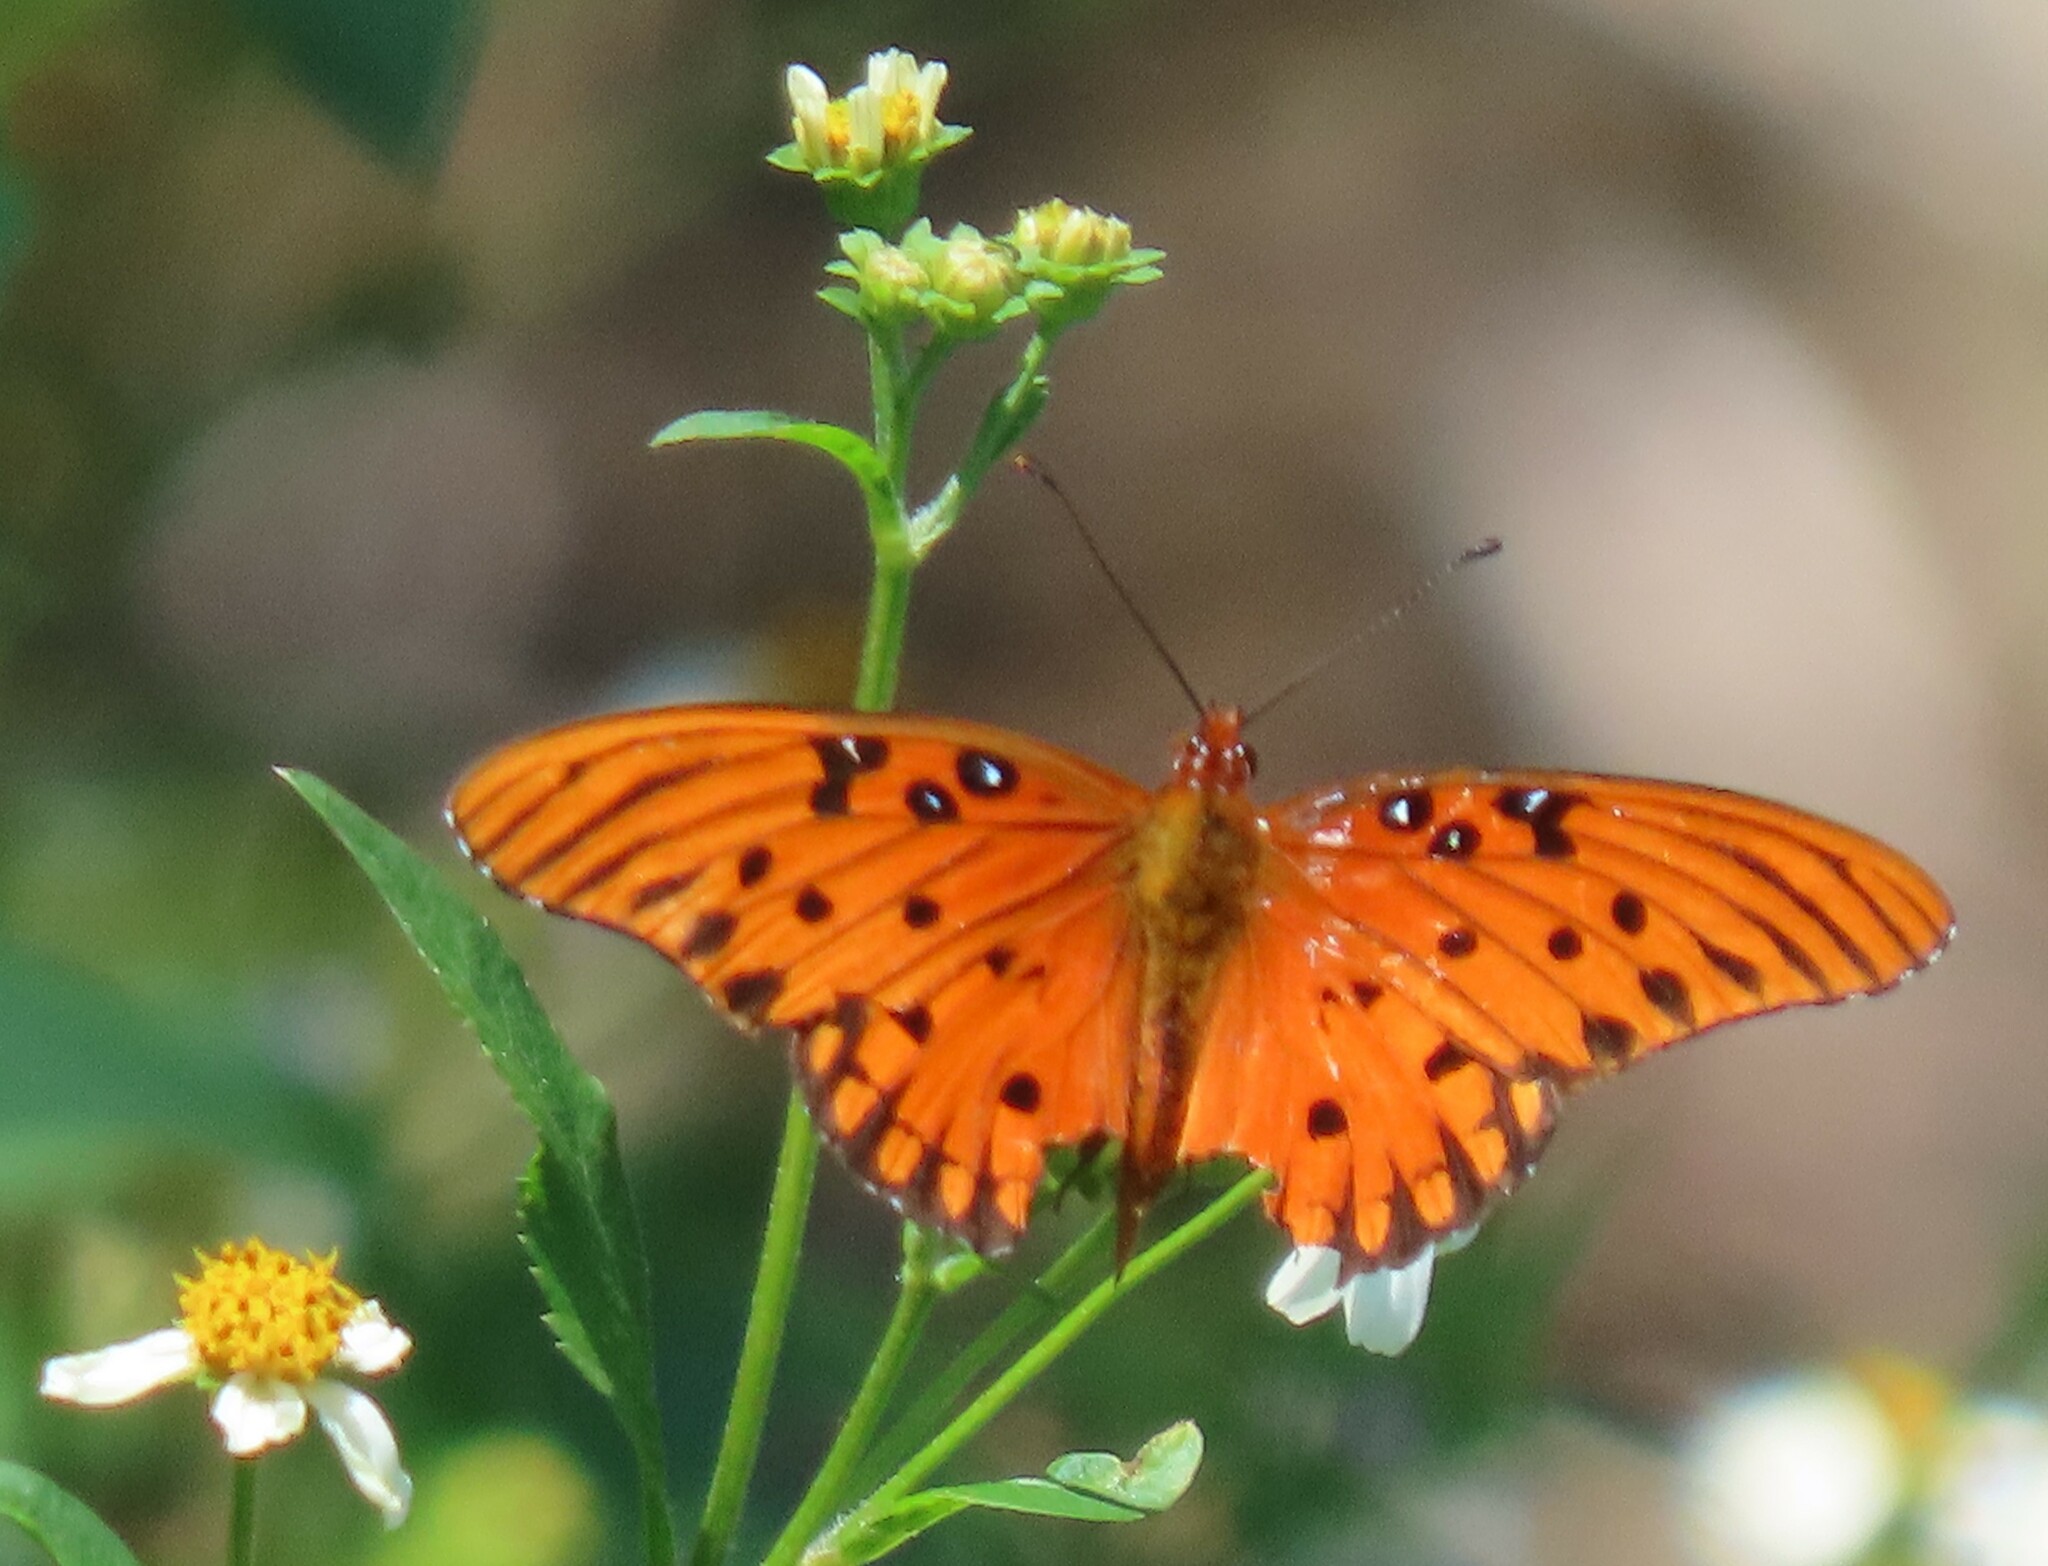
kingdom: Animalia
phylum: Arthropoda
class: Insecta
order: Lepidoptera
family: Nymphalidae
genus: Dione
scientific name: Dione vanillae
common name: Gulf fritillary
